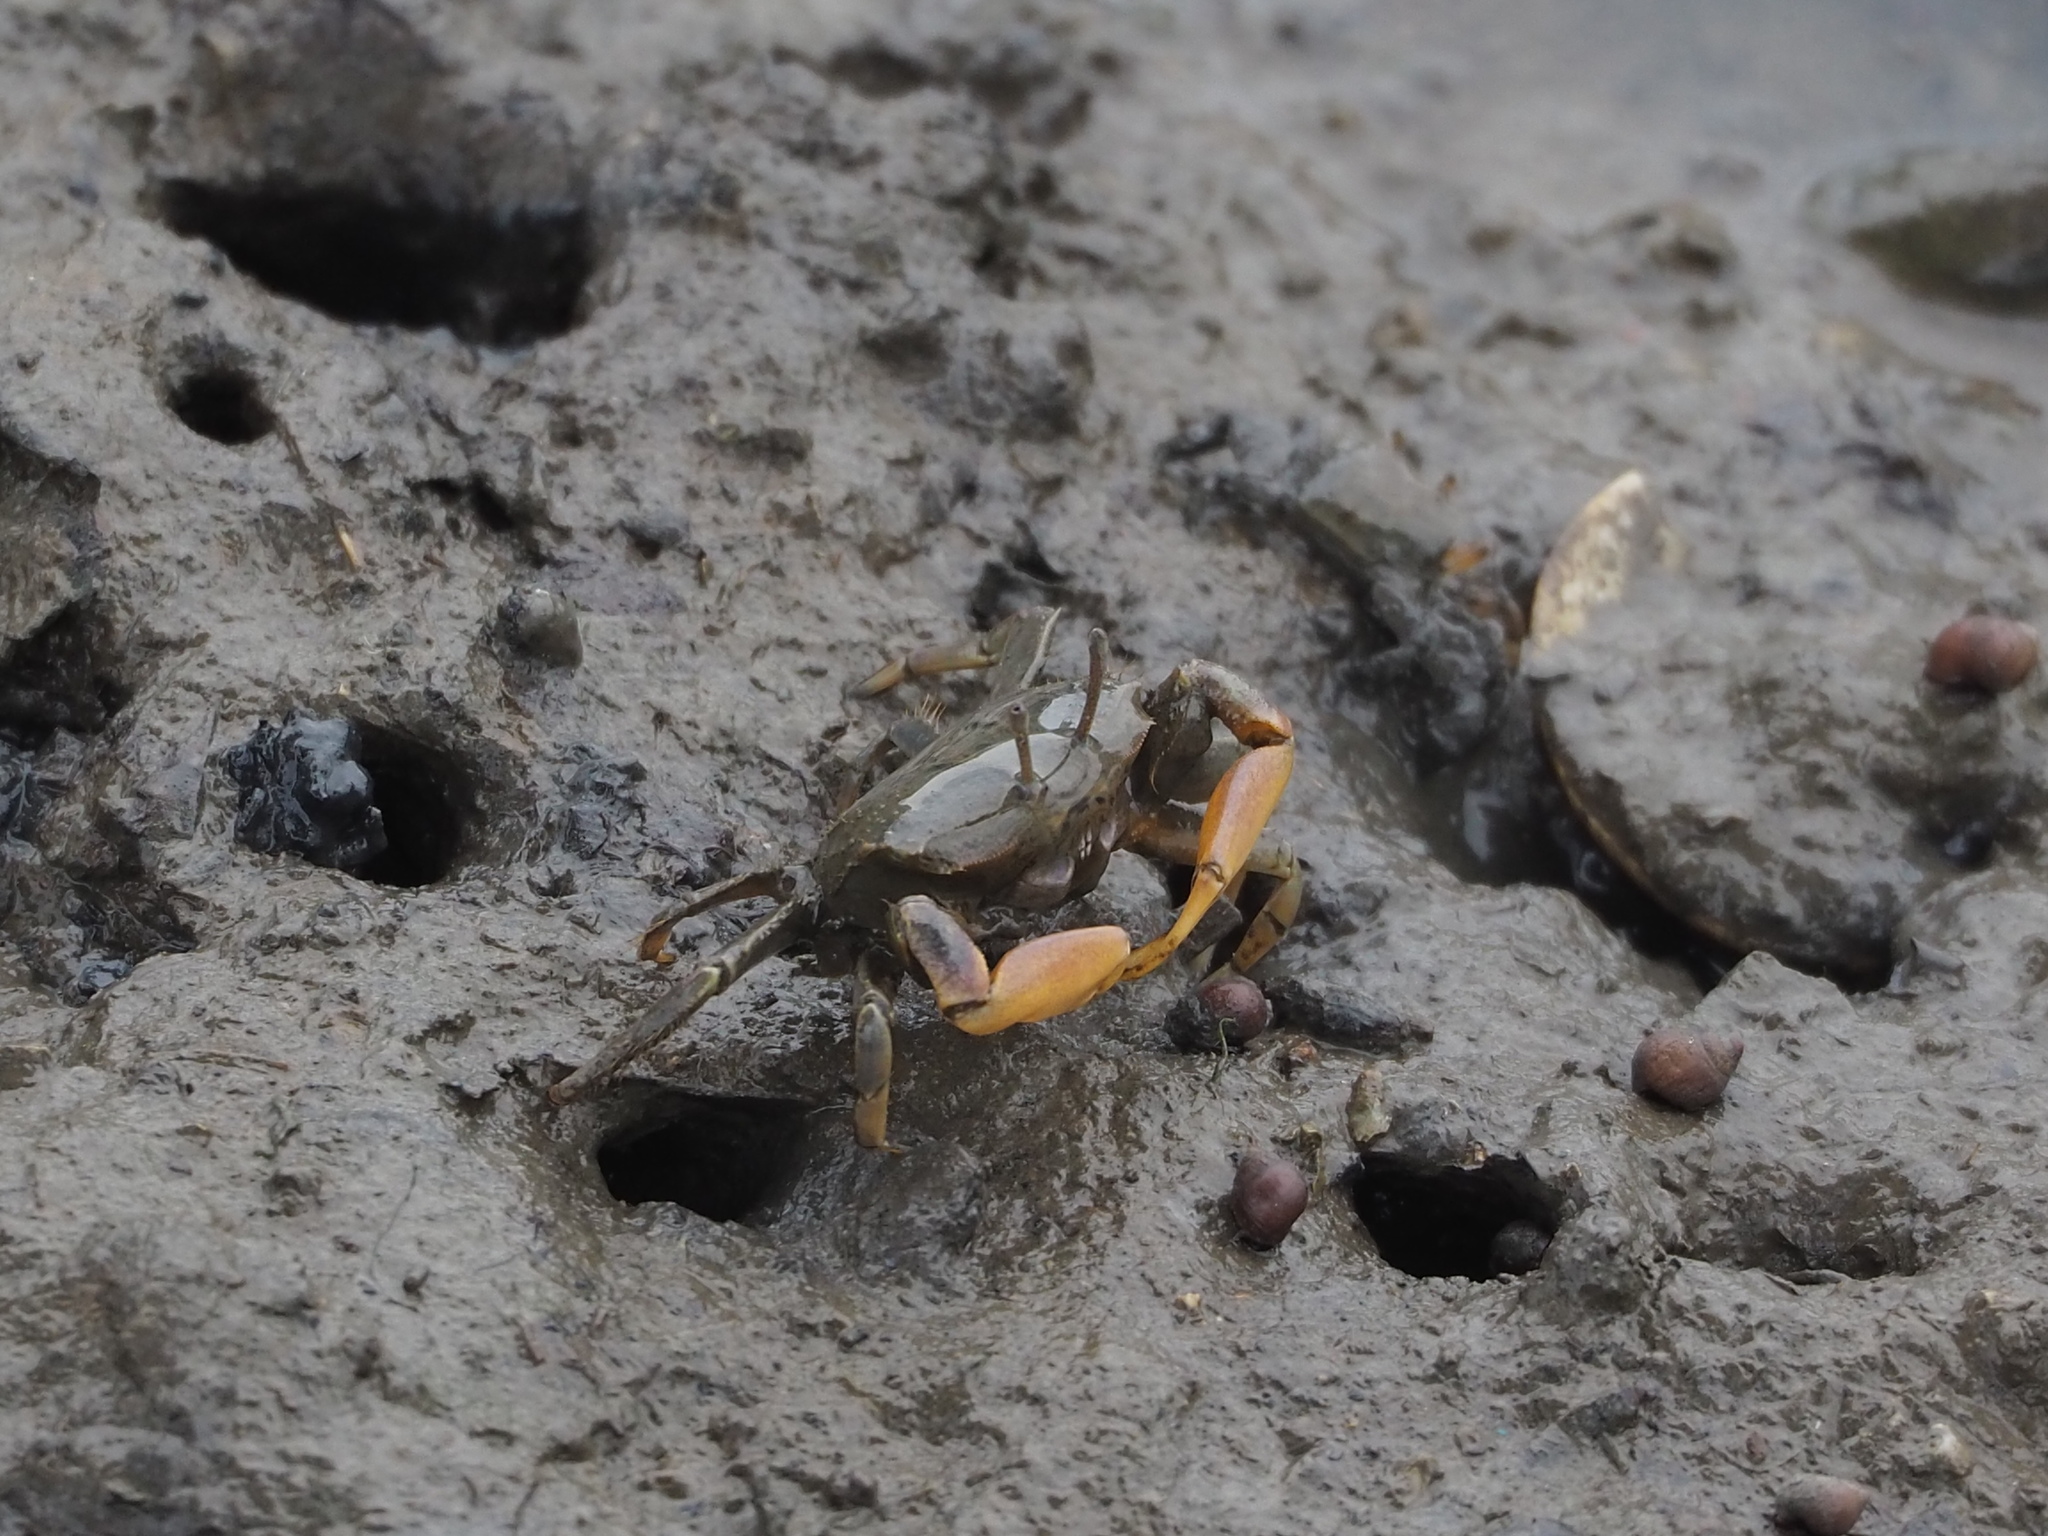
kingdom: Animalia
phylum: Arthropoda
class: Malacostraca
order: Decapoda
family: Macrophthalmidae
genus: Macrophthalmus
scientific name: Macrophthalmus banzai
